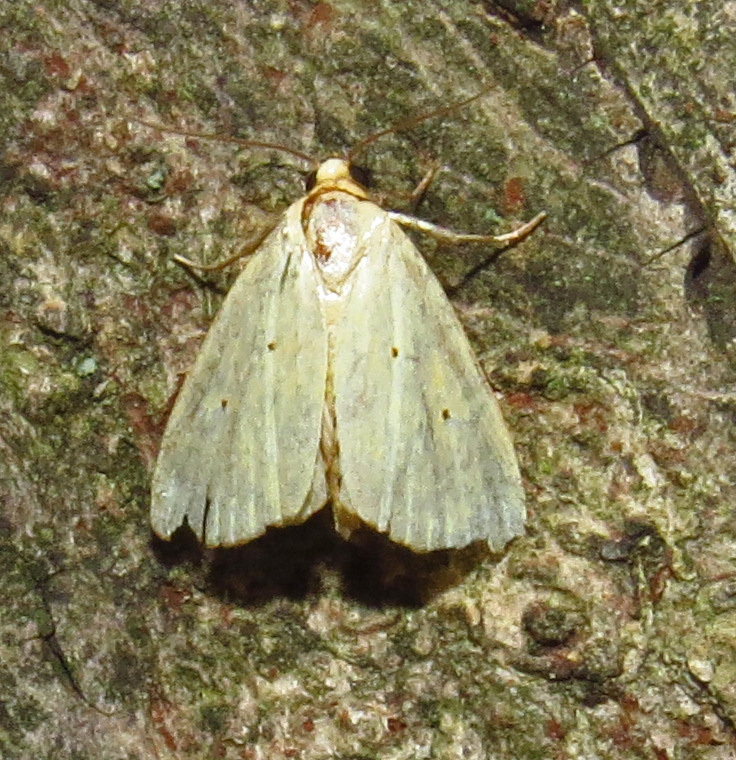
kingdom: Animalia
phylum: Arthropoda
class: Insecta
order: Lepidoptera
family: Noctuidae
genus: Marimatha
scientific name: Marimatha nigrofimbria
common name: Black-bordered lemon moth
